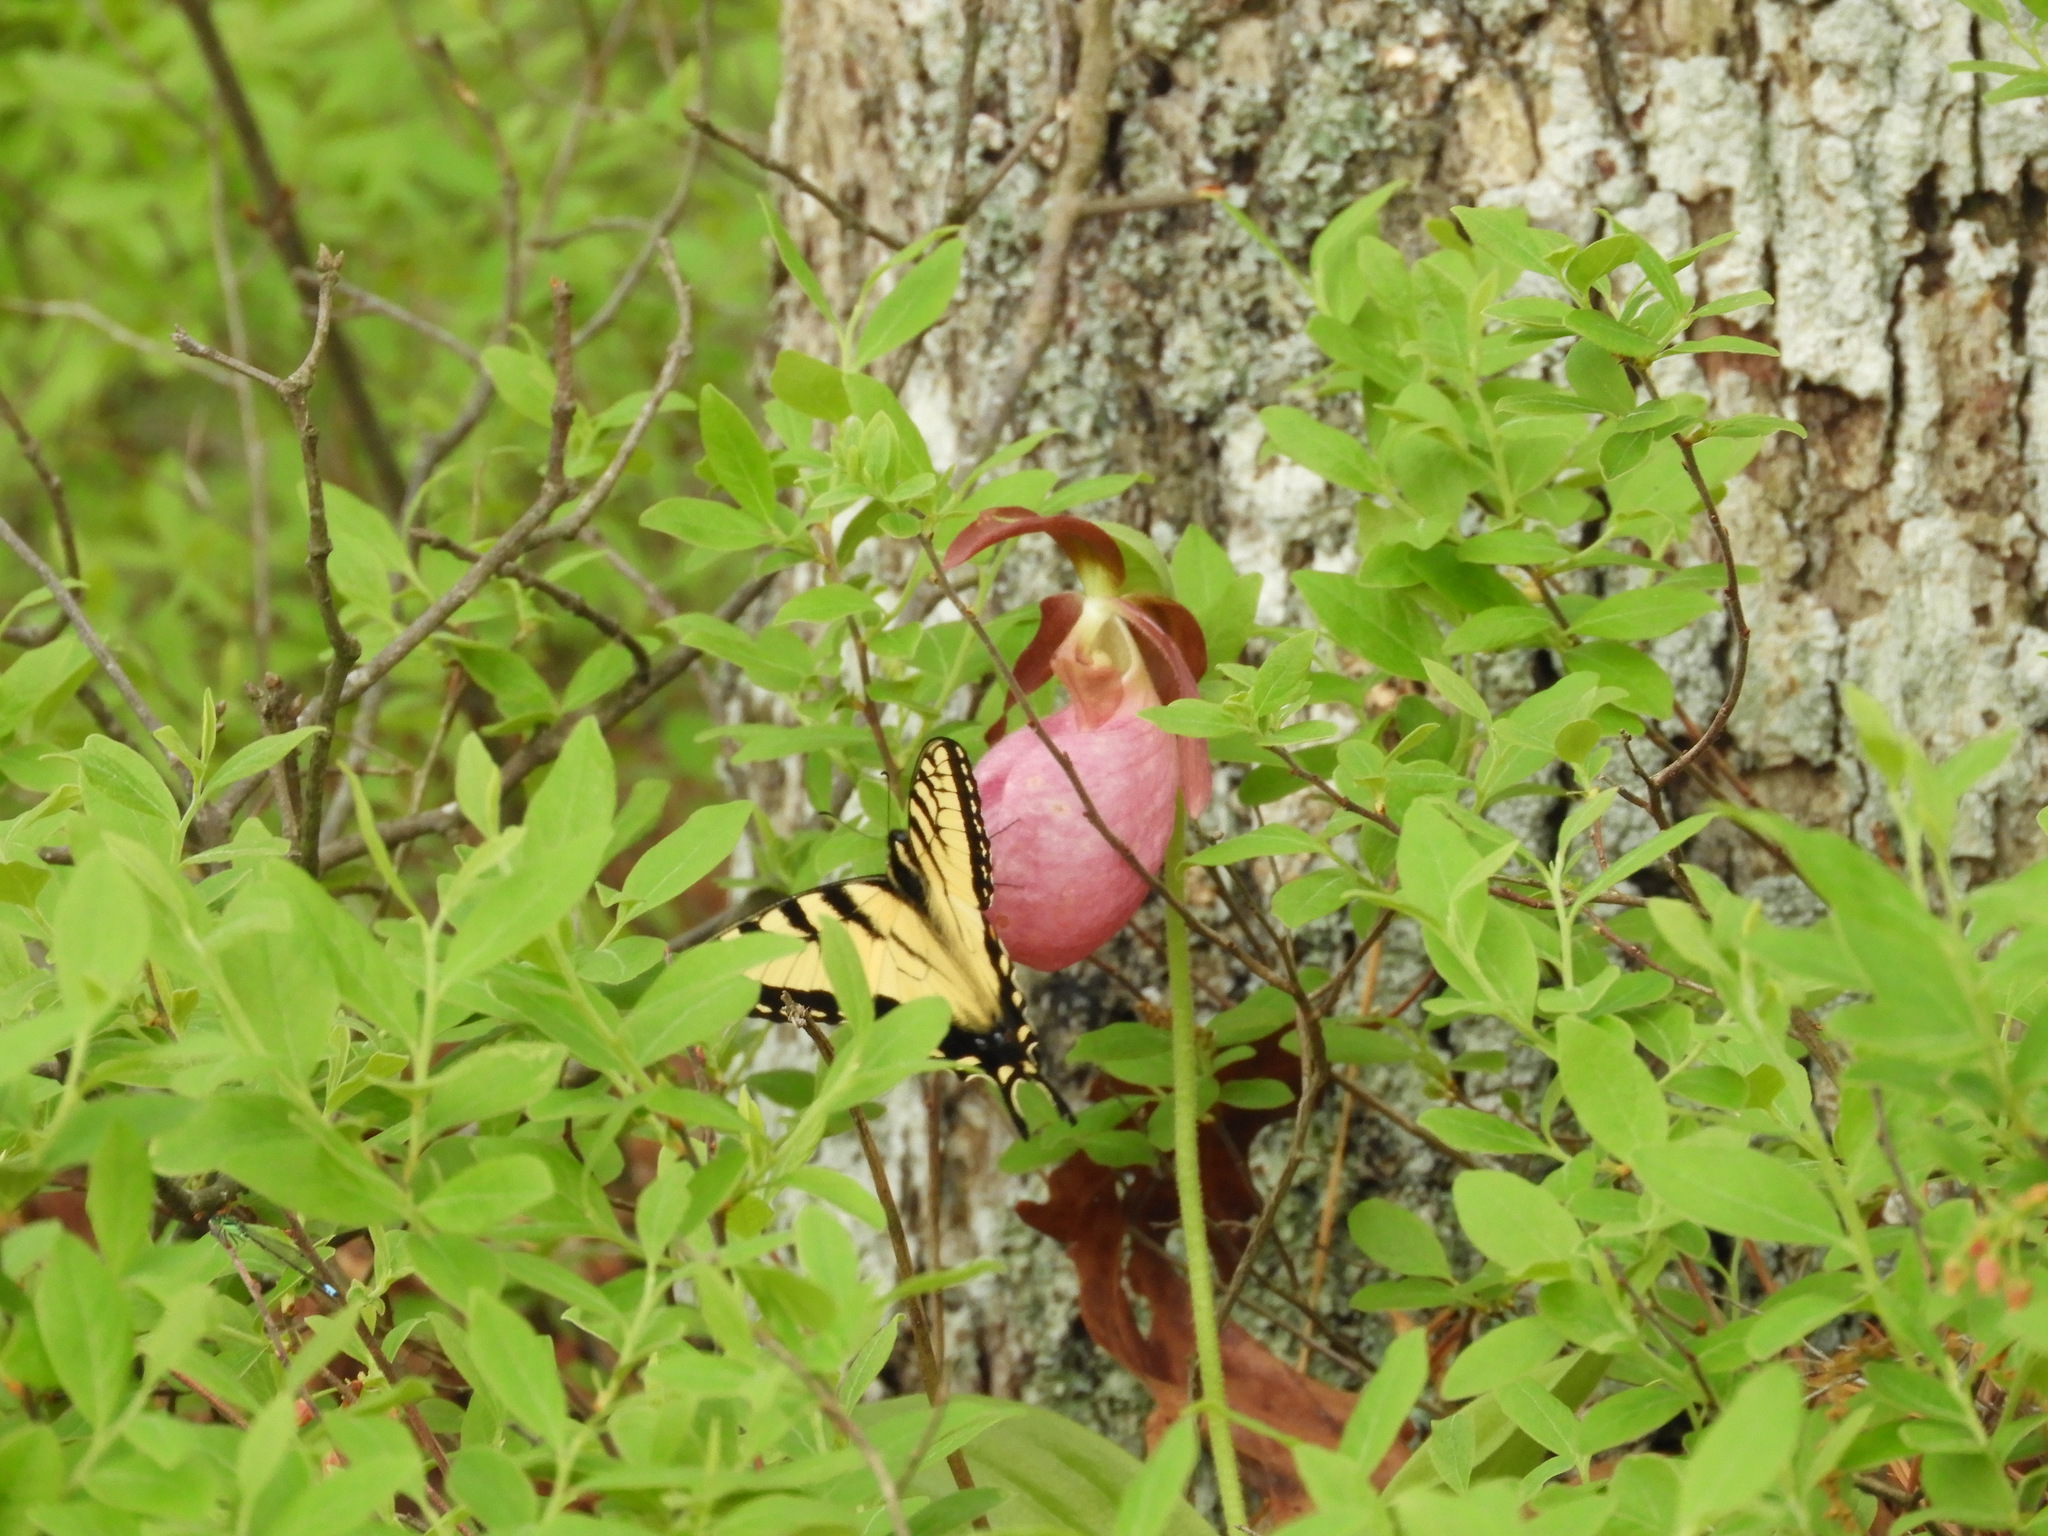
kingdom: Animalia
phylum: Arthropoda
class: Insecta
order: Lepidoptera
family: Papilionidae
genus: Papilio
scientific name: Papilio glaucus
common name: Tiger swallowtail
